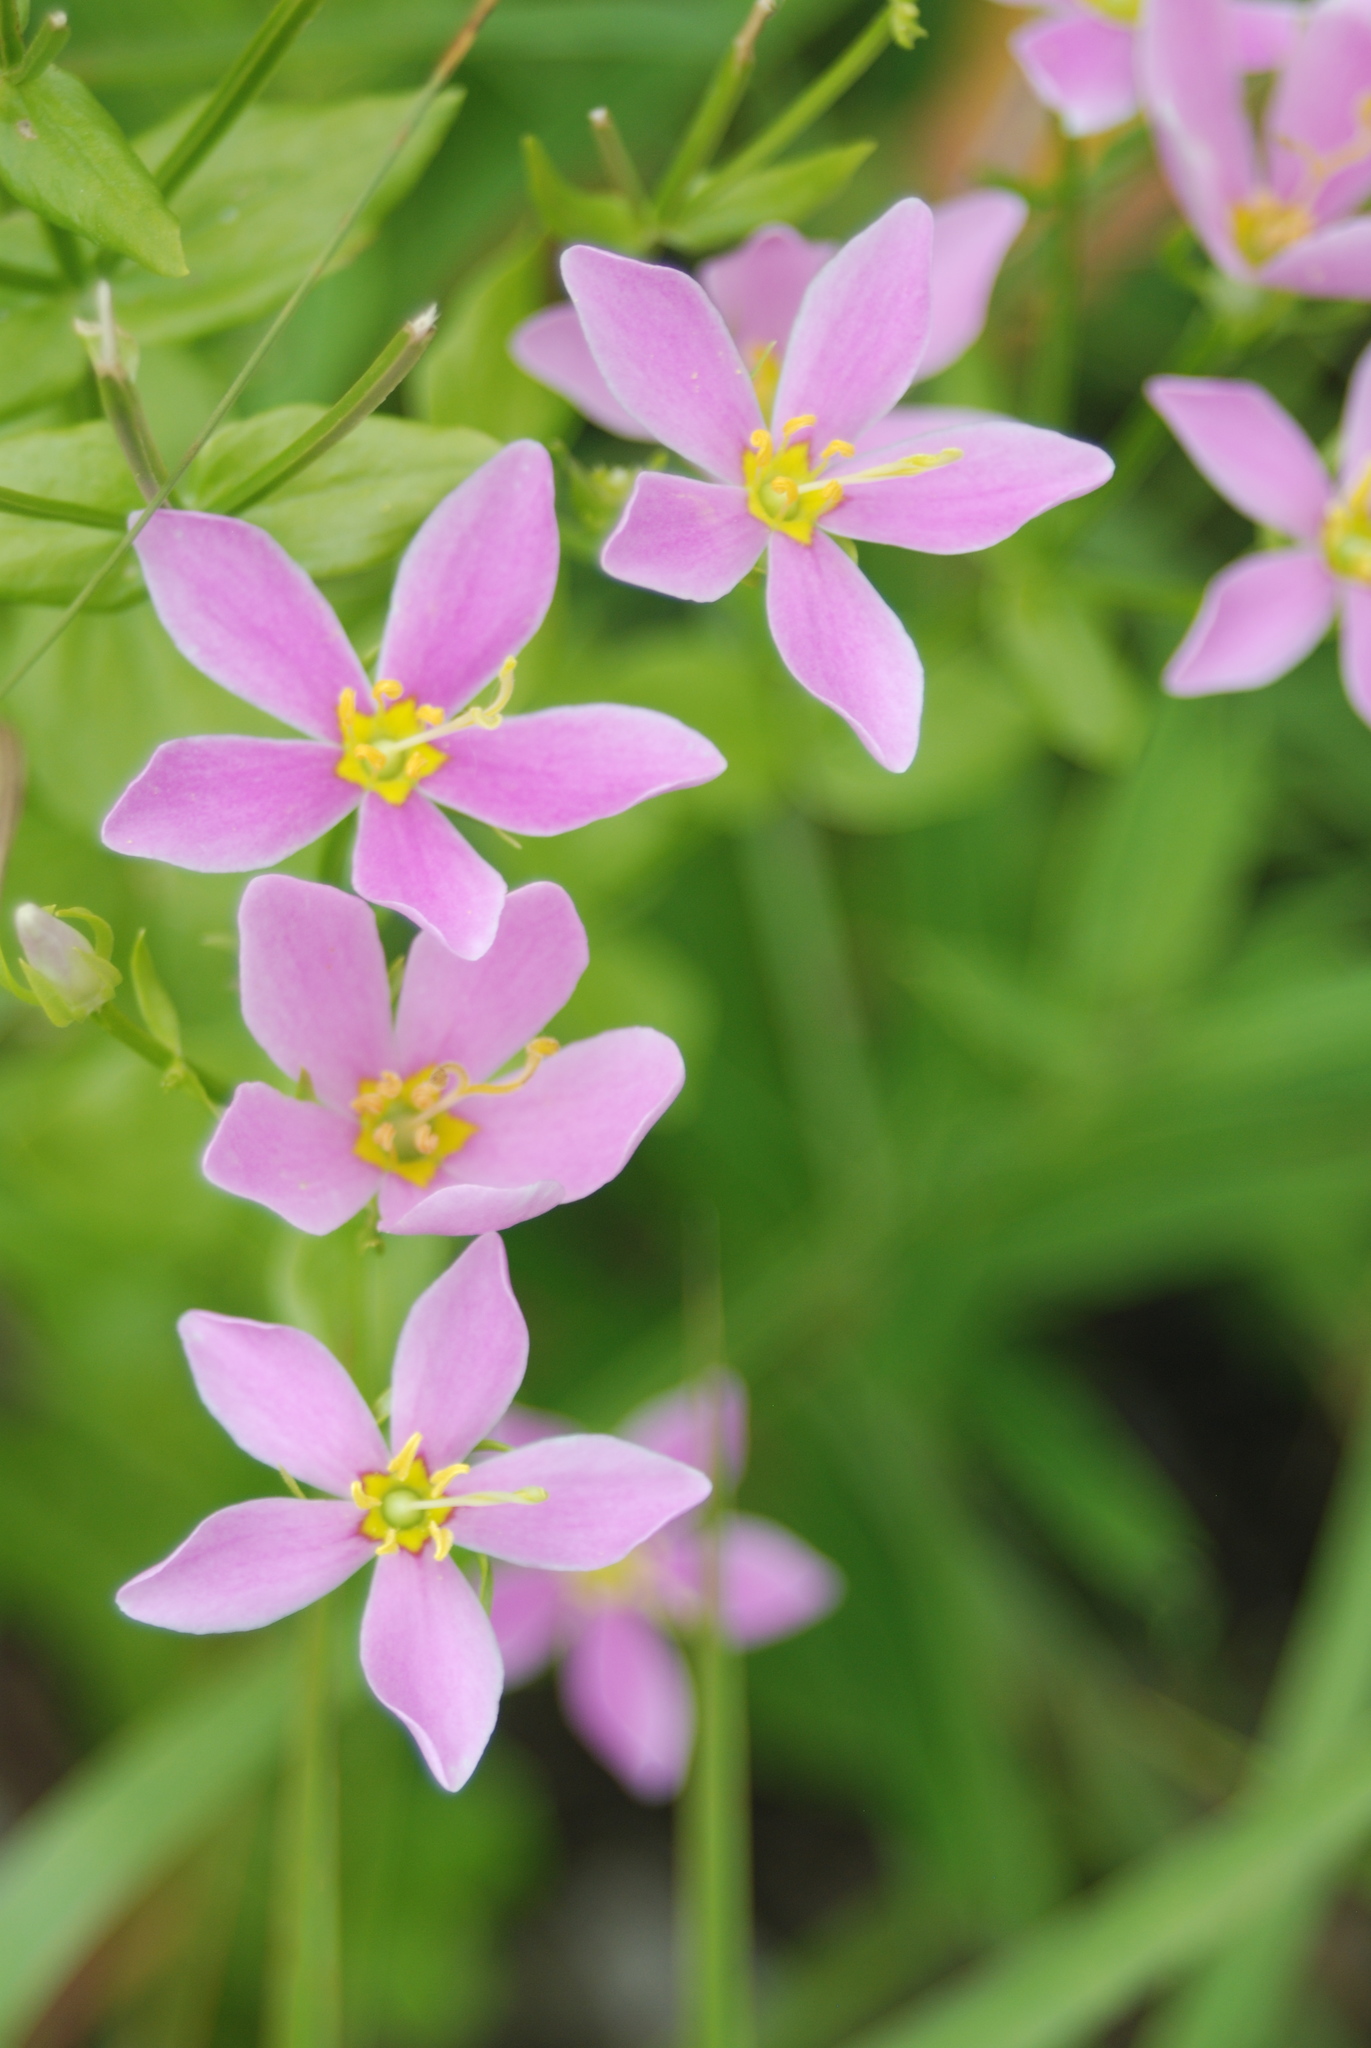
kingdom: Plantae
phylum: Tracheophyta
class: Magnoliopsida
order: Gentianales
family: Gentianaceae
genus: Sabatia
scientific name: Sabatia angularis
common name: Rose-pink
